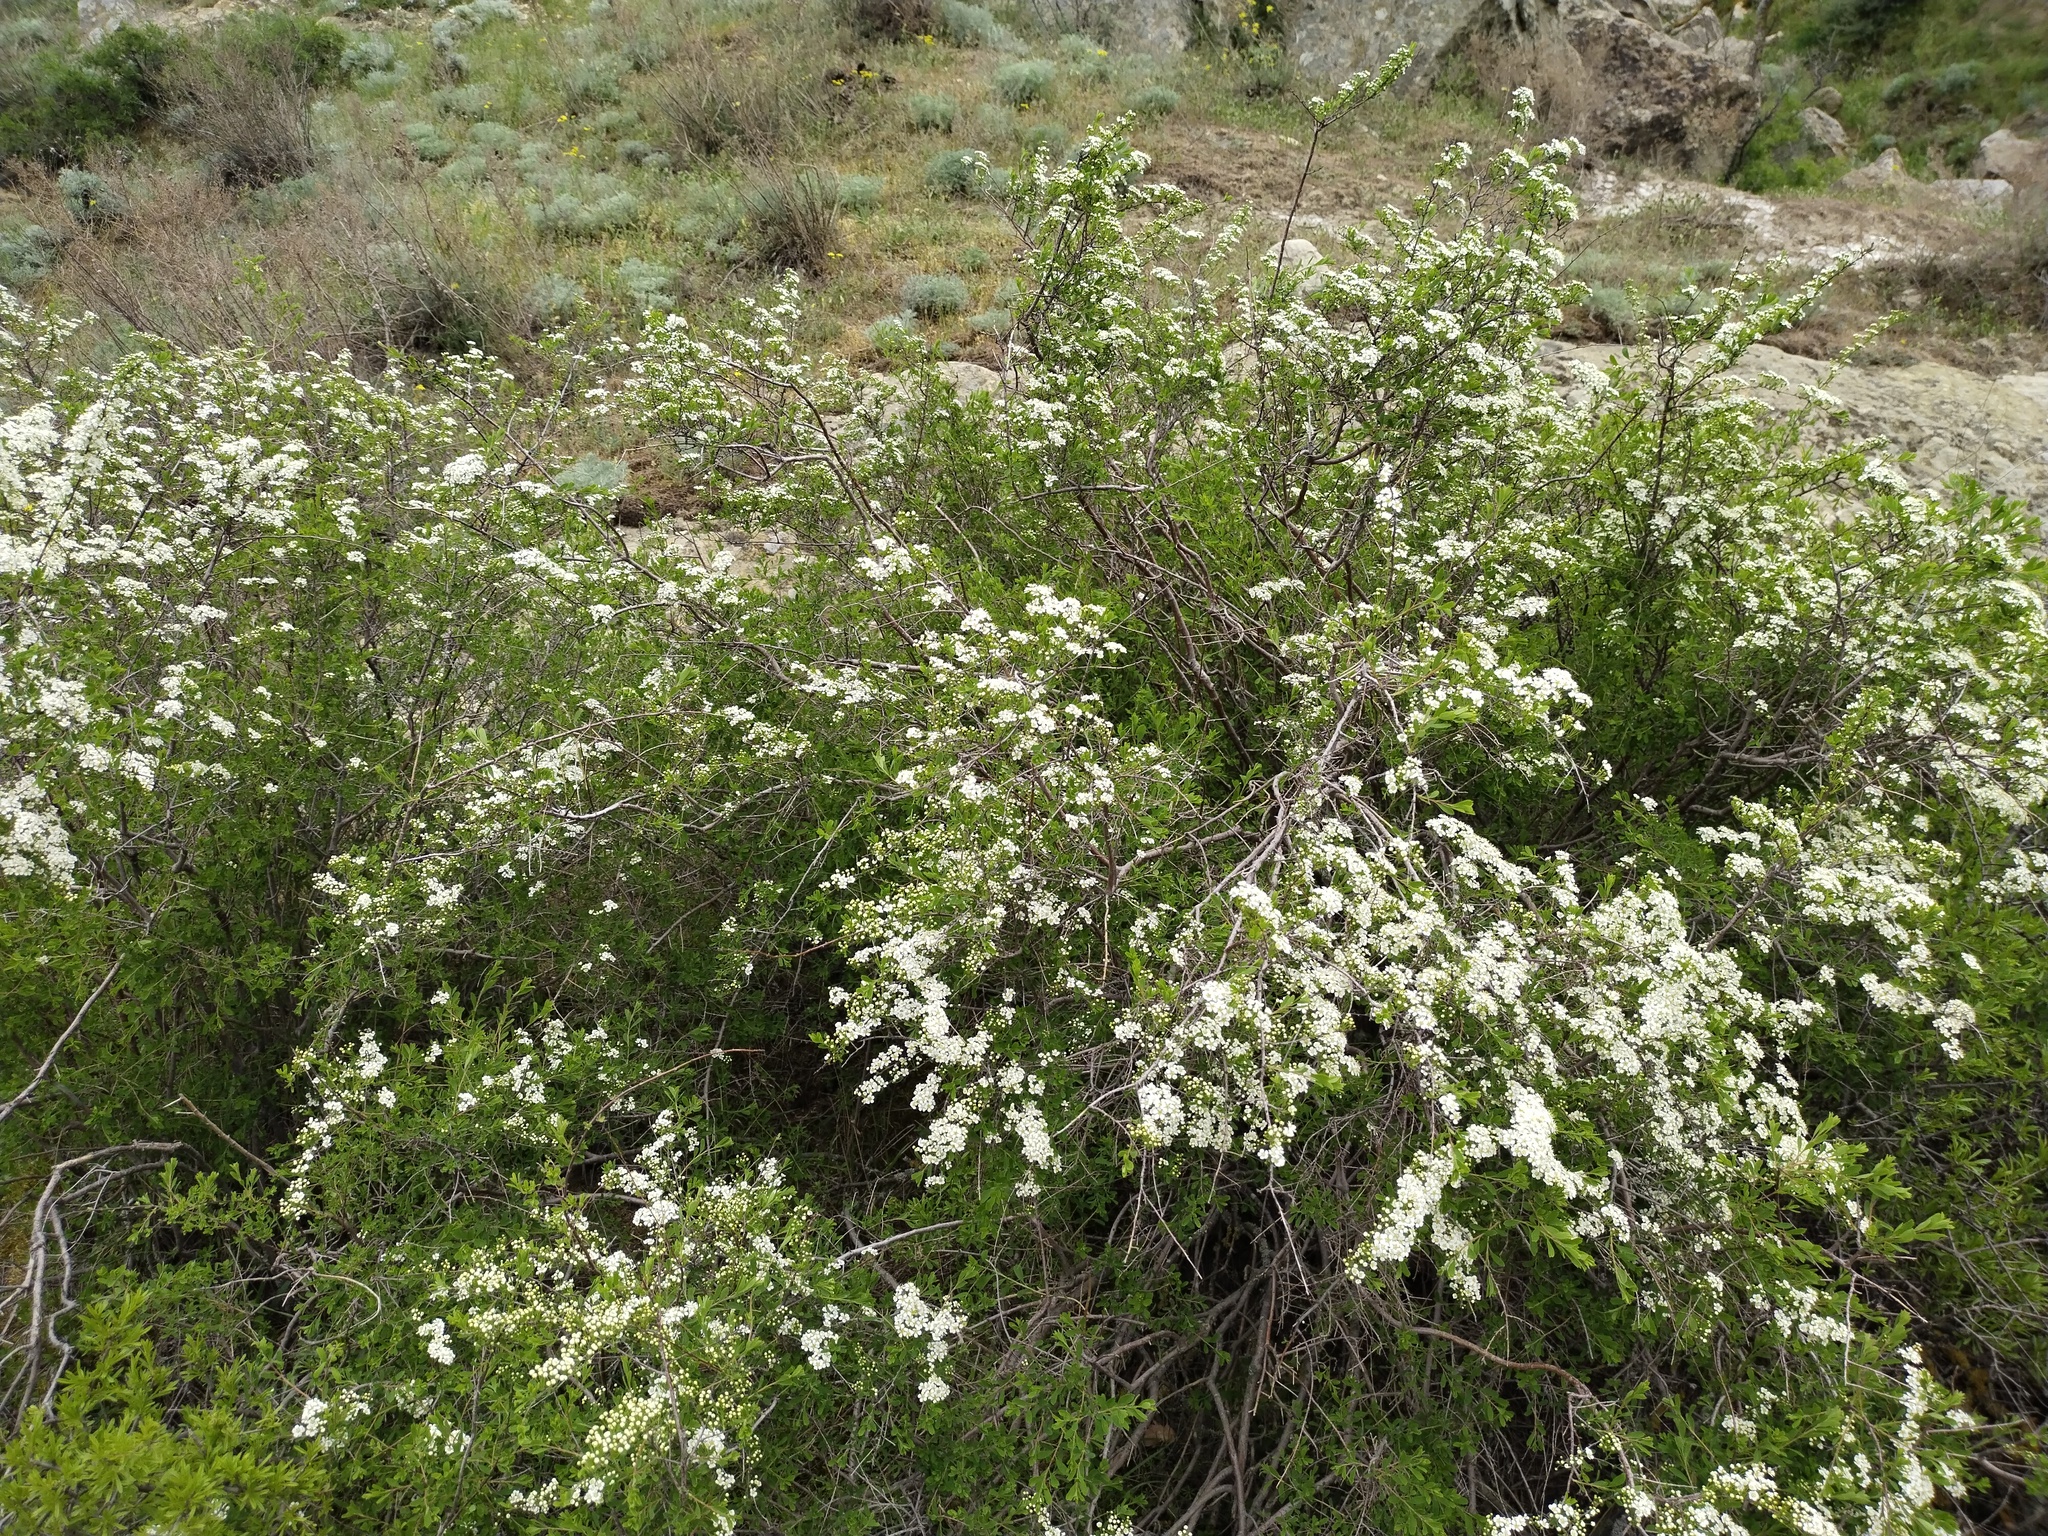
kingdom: Plantae
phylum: Tracheophyta
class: Magnoliopsida
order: Rosales
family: Rosaceae
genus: Spiraea
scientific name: Spiraea hypericifolia
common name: Iberian spirea
